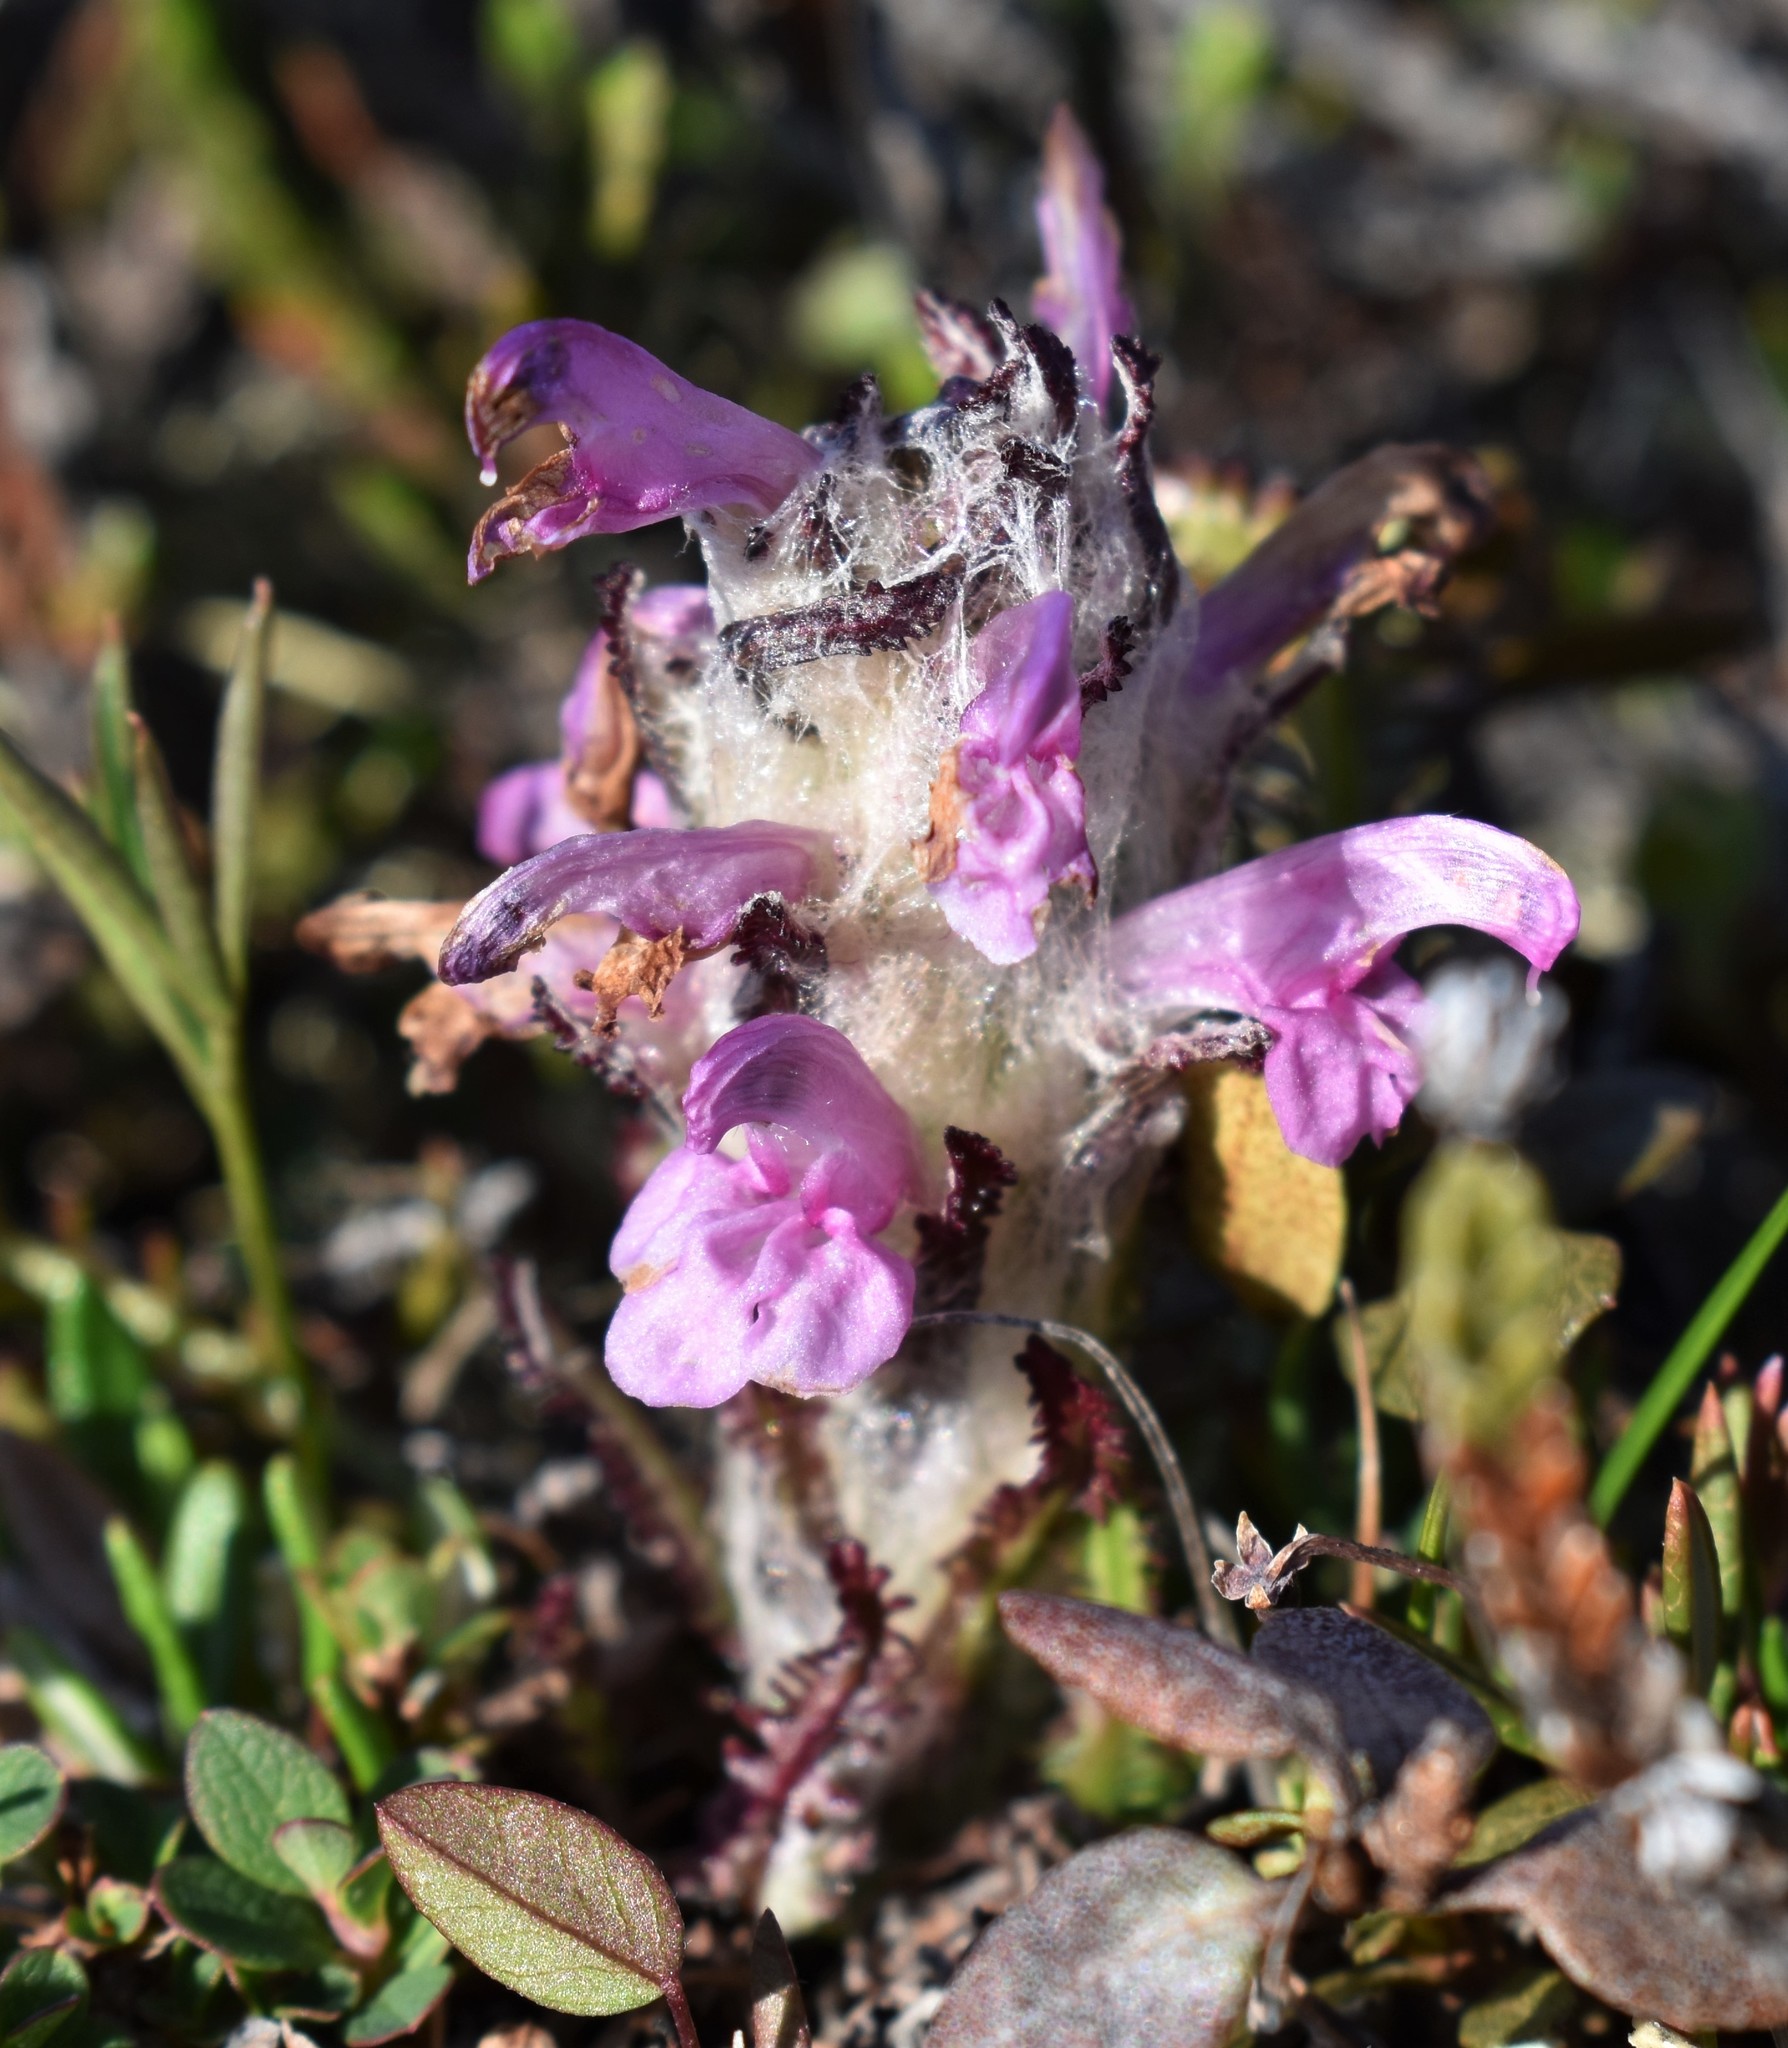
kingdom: Plantae
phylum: Tracheophyta
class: Magnoliopsida
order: Lamiales
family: Orobanchaceae
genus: Pedicularis
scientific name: Pedicularis hirsuta
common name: Hairy lousewort
